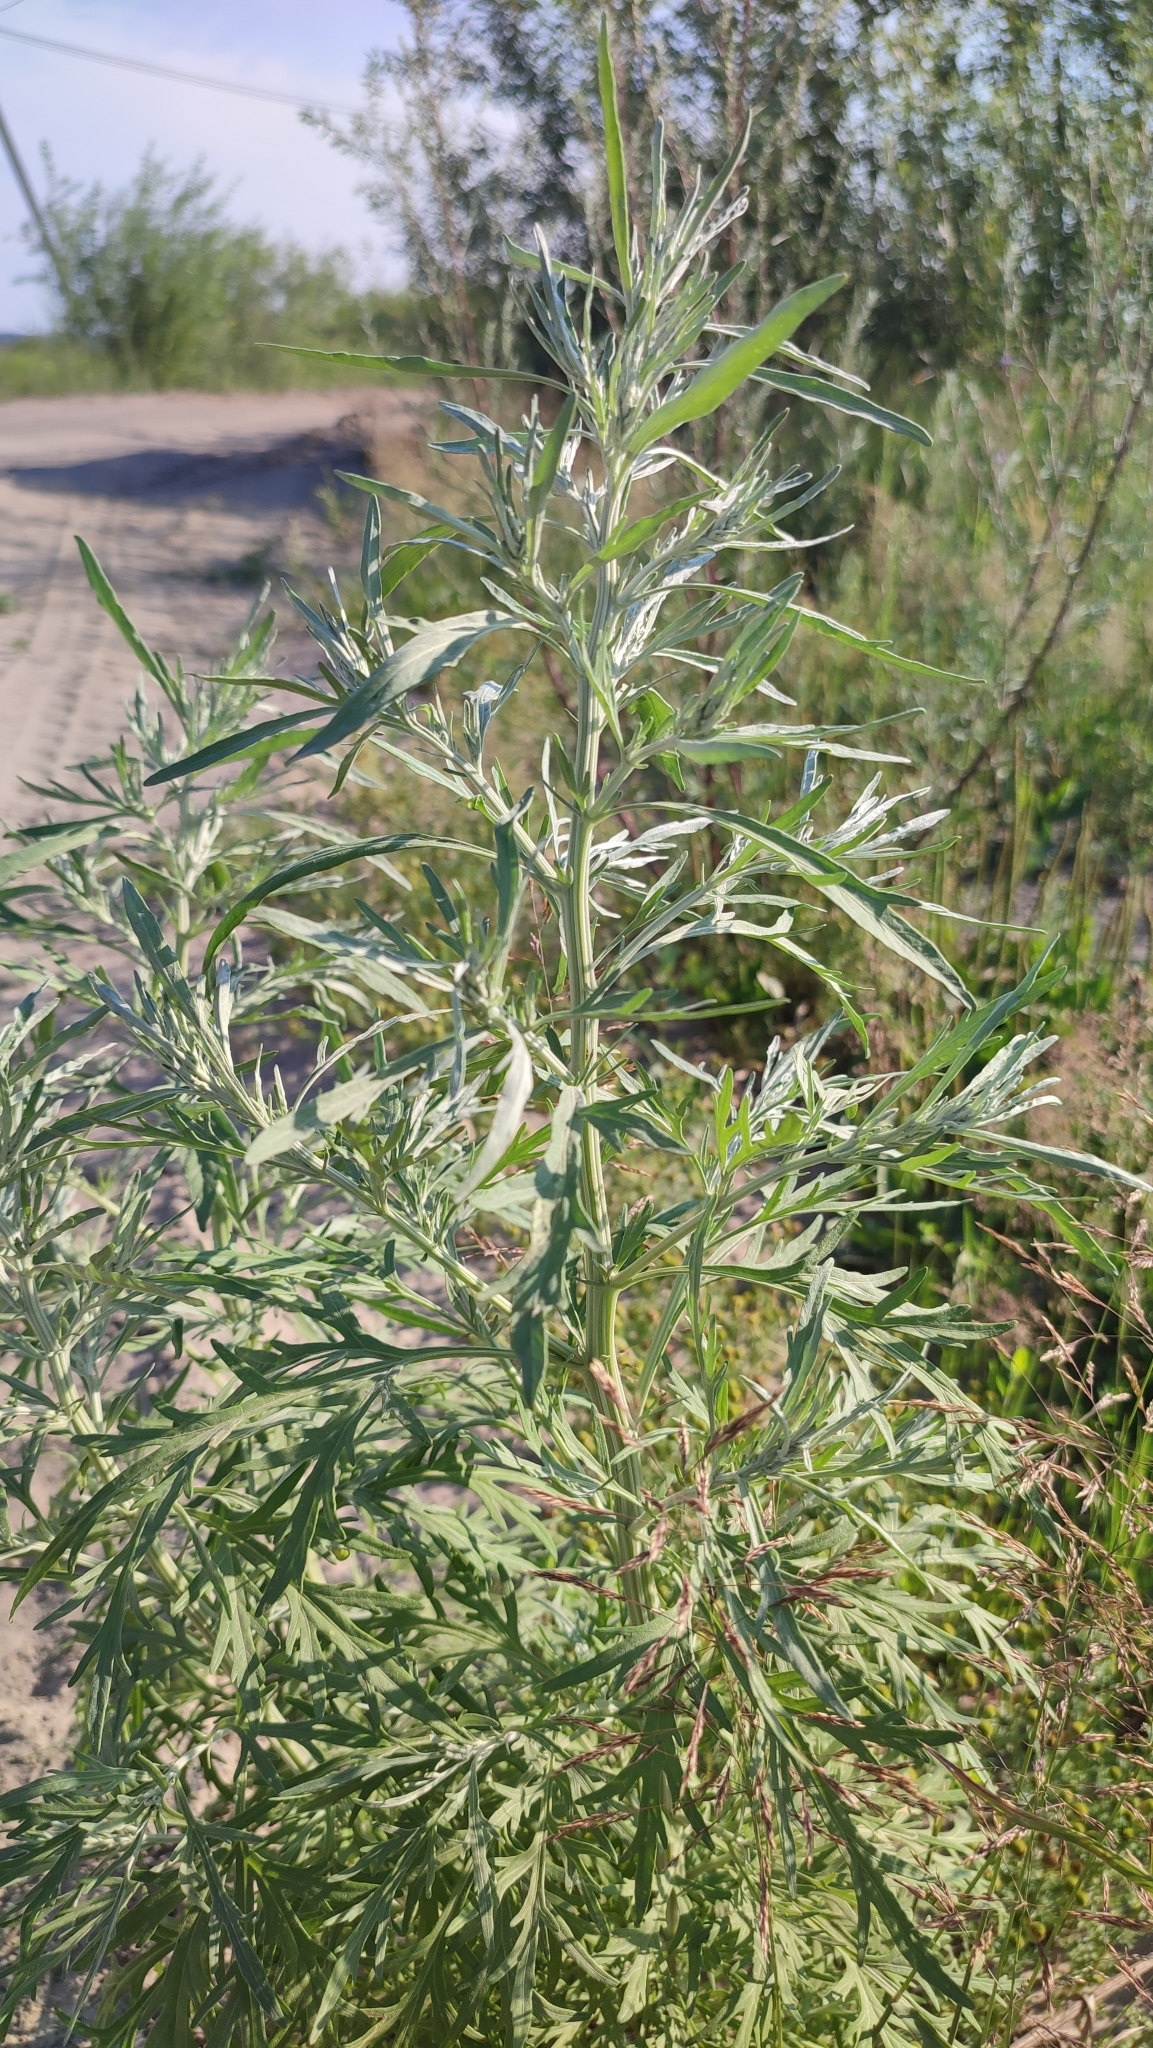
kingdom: Plantae
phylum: Tracheophyta
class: Magnoliopsida
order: Asterales
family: Asteraceae
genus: Artemisia
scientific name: Artemisia sieversiana
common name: Sieversian wormwood
